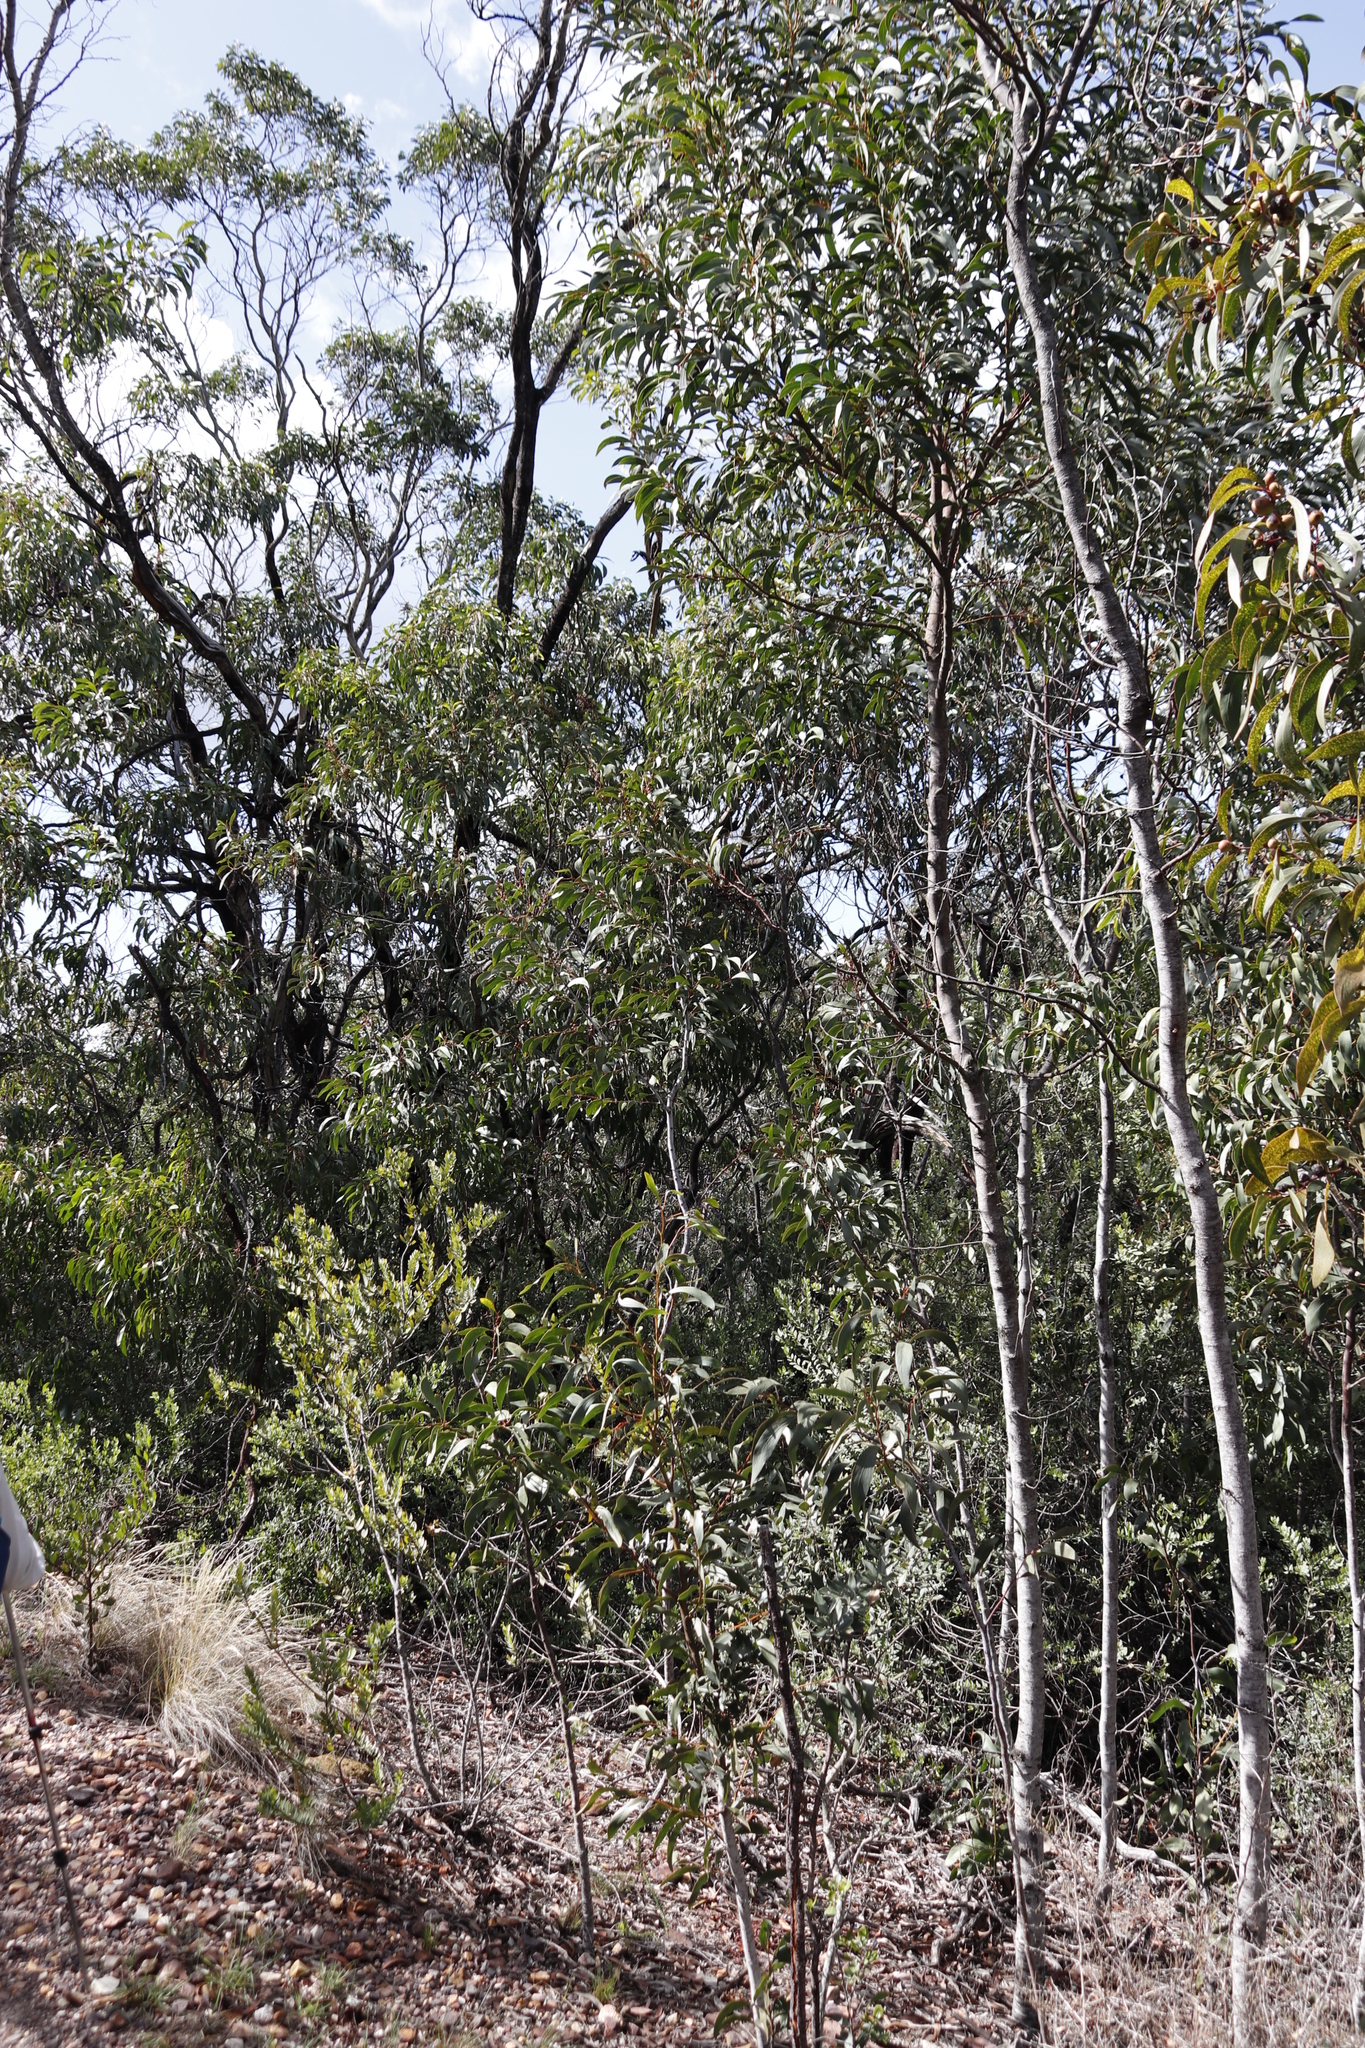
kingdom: Plantae
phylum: Tracheophyta
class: Magnoliopsida
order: Fabales
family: Fabaceae
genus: Acacia
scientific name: Acacia pycnantha
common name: Golden wattle
